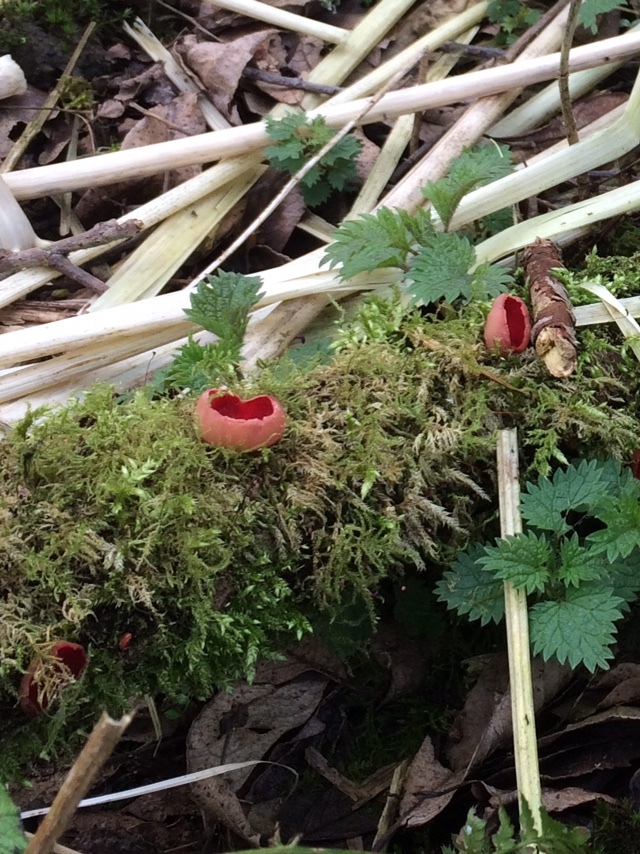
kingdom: Fungi
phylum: Ascomycota
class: Pezizomycetes
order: Pezizales
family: Sarcoscyphaceae
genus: Sarcoscypha
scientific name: Sarcoscypha
